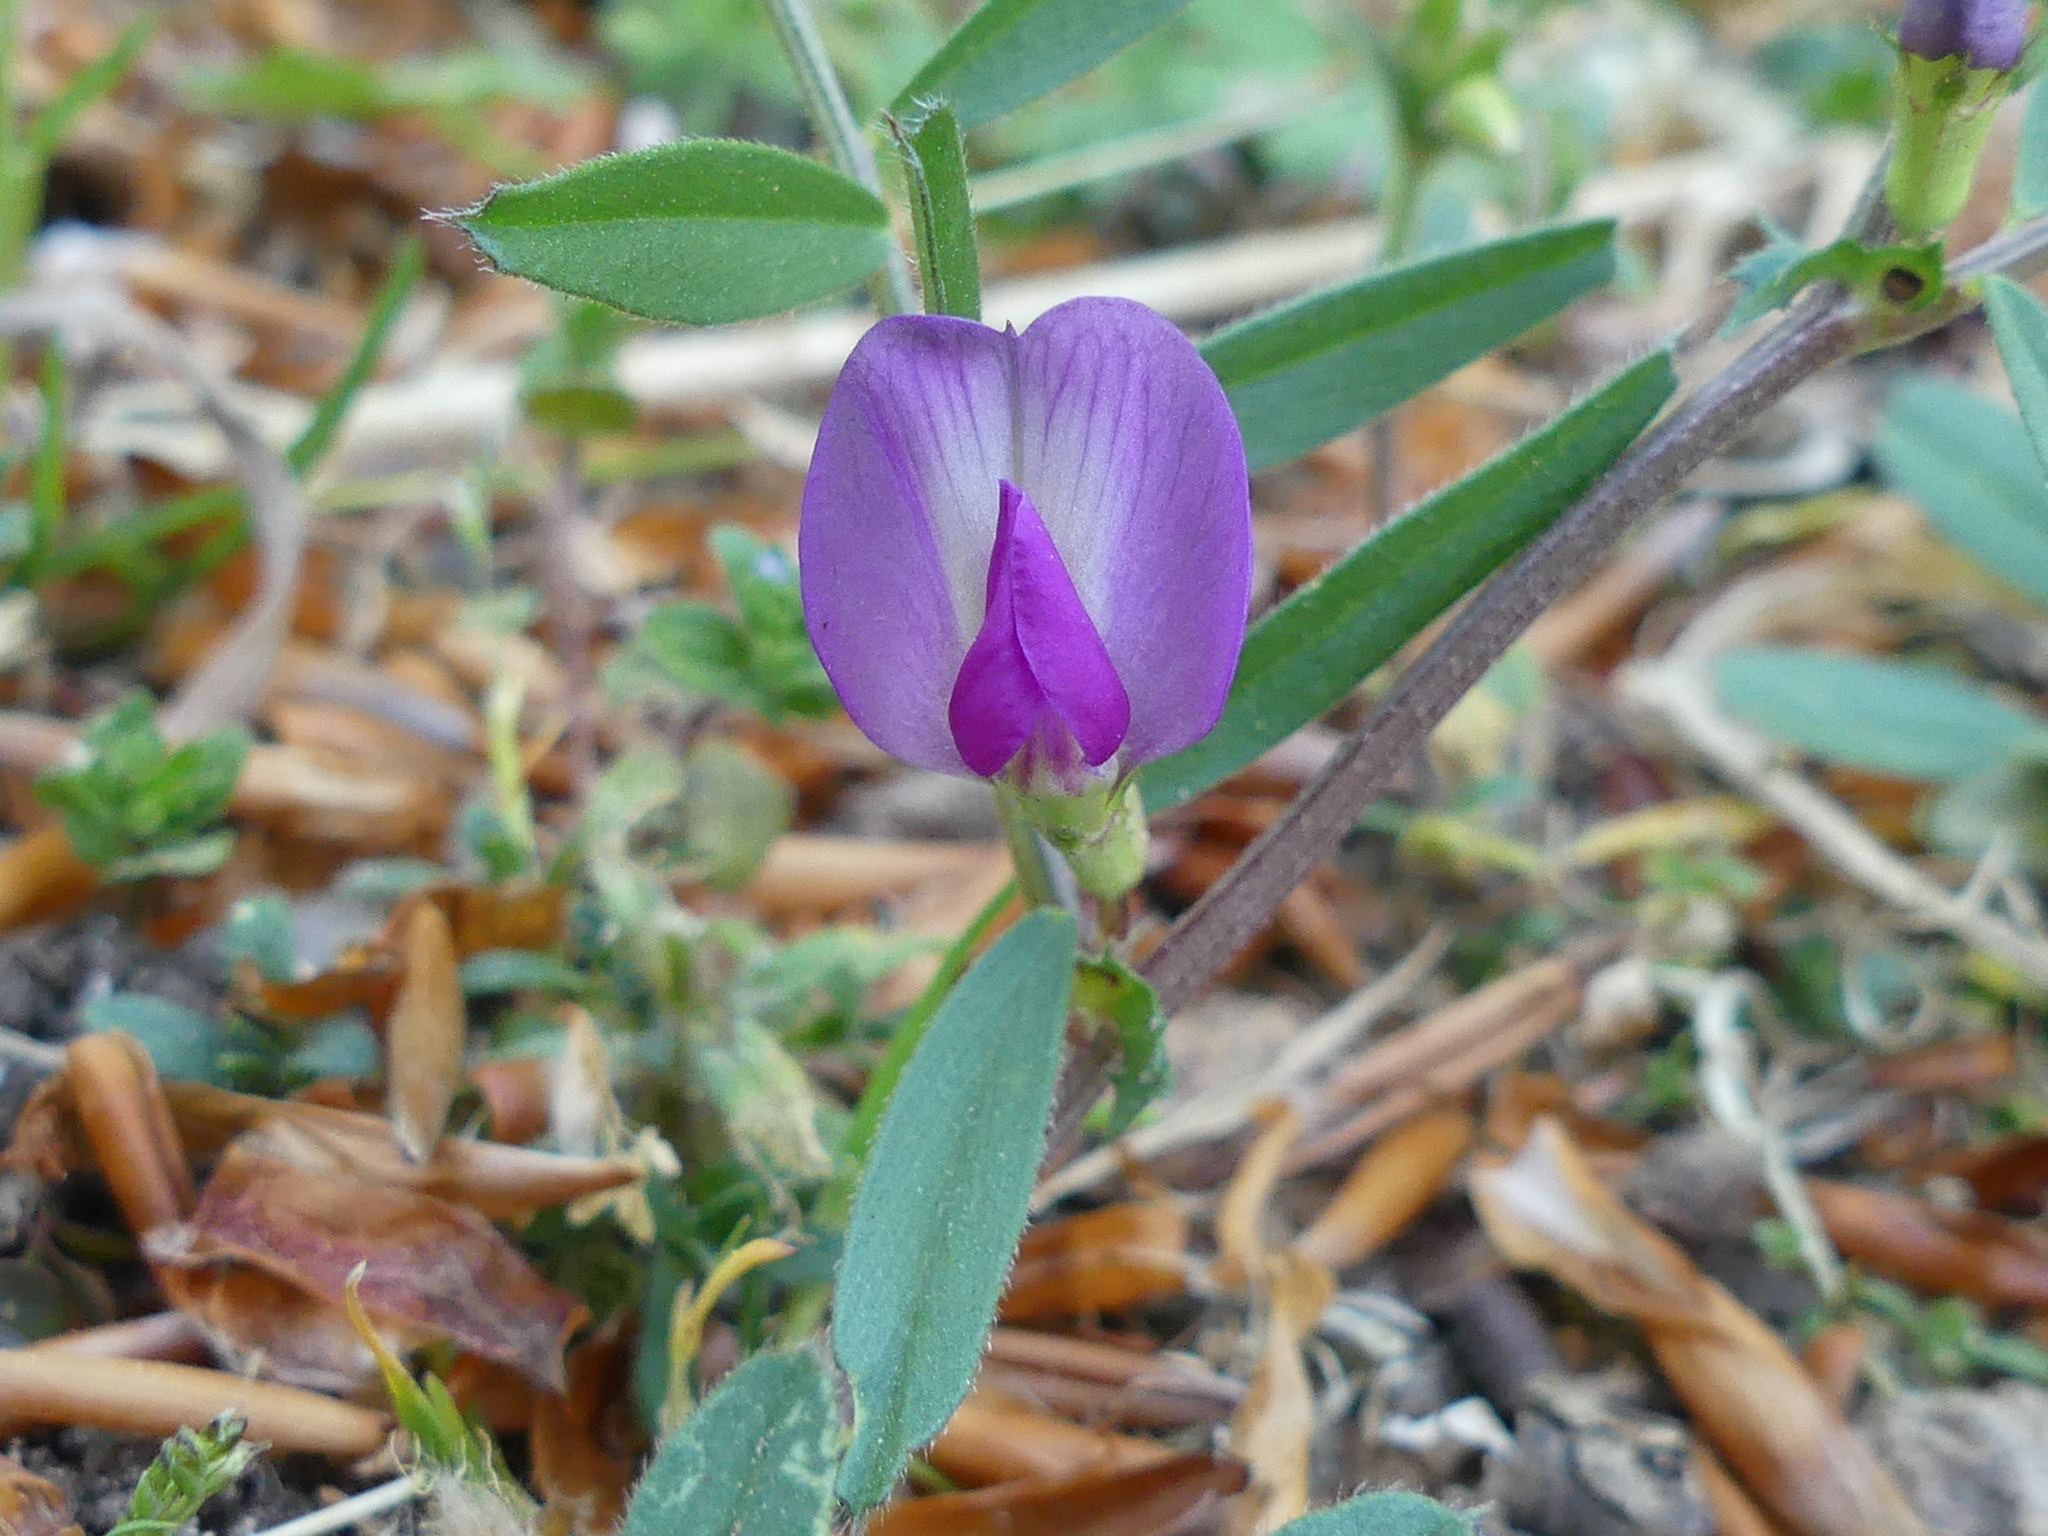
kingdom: Plantae
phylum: Tracheophyta
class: Magnoliopsida
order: Fabales
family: Fabaceae
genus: Vicia
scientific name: Vicia sativa
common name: Garden vetch
